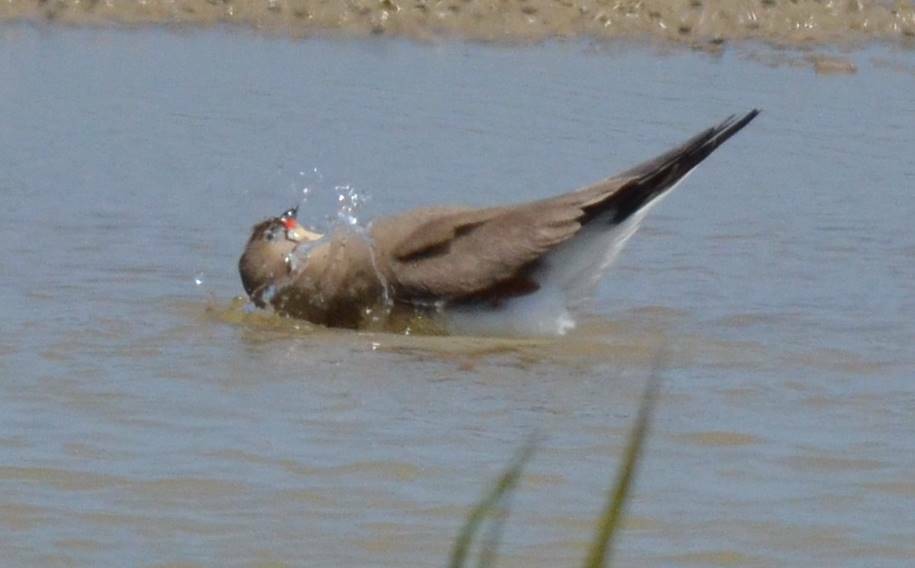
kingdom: Animalia
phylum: Chordata
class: Aves
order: Charadriiformes
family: Glareolidae
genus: Glareola
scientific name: Glareola pratincola
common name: Collared pratincole
